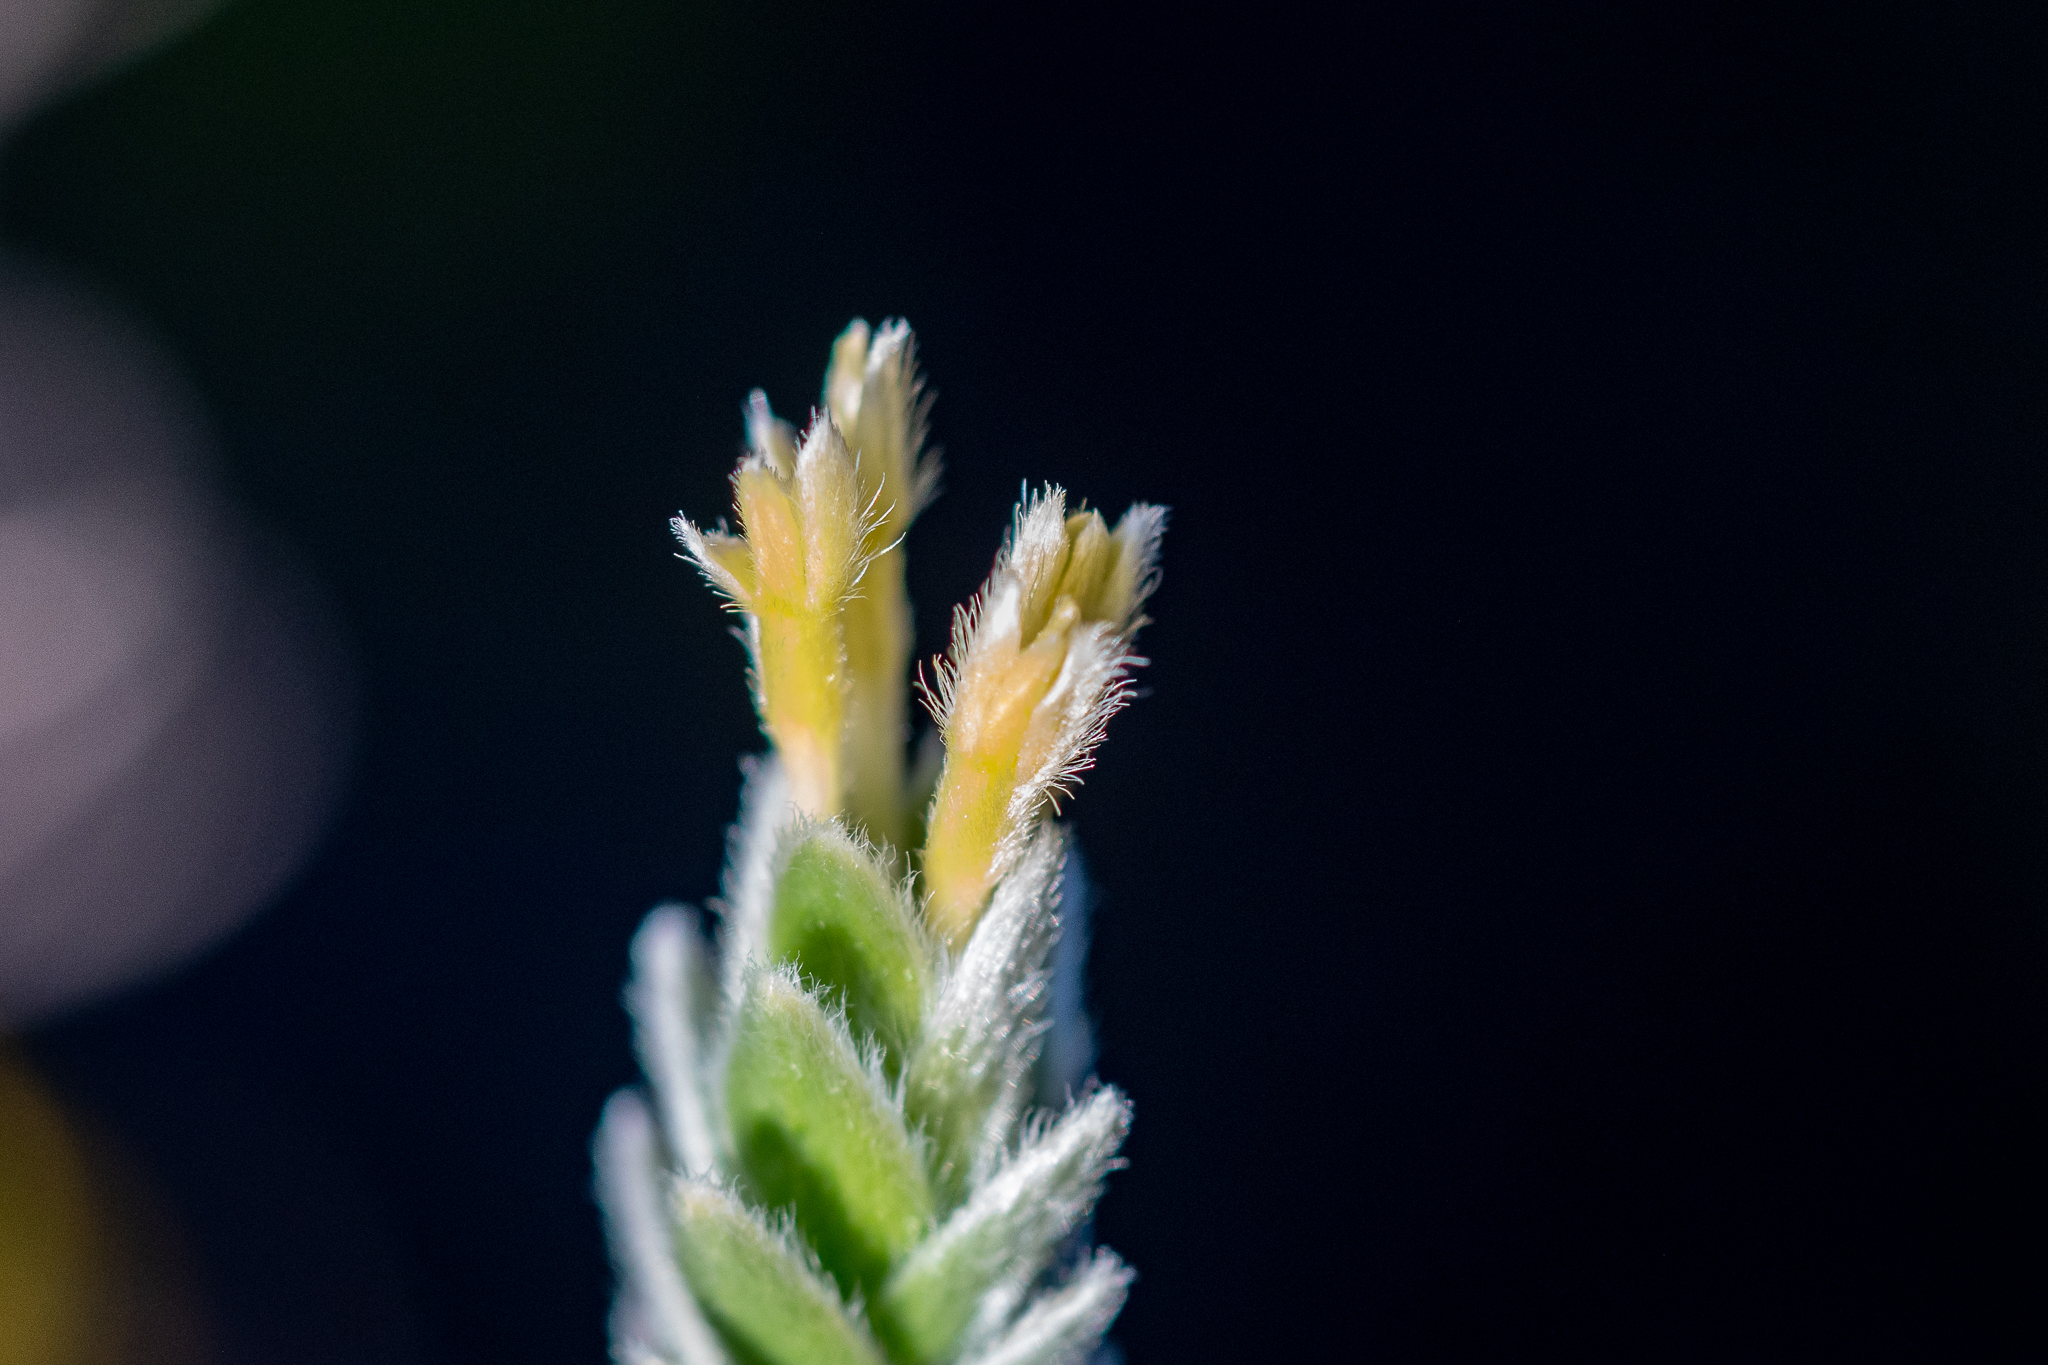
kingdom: Plantae
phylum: Tracheophyta
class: Magnoliopsida
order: Malvales
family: Thymelaeaceae
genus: Gnidia
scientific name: Gnidia anomala
